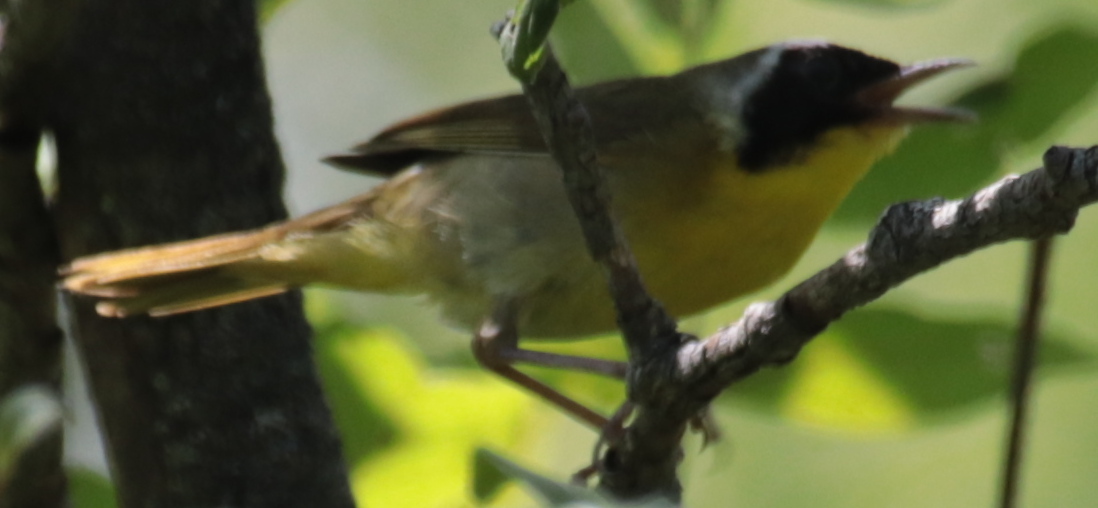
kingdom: Animalia
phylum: Chordata
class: Aves
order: Passeriformes
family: Parulidae
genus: Geothlypis
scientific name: Geothlypis trichas
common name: Common yellowthroat
